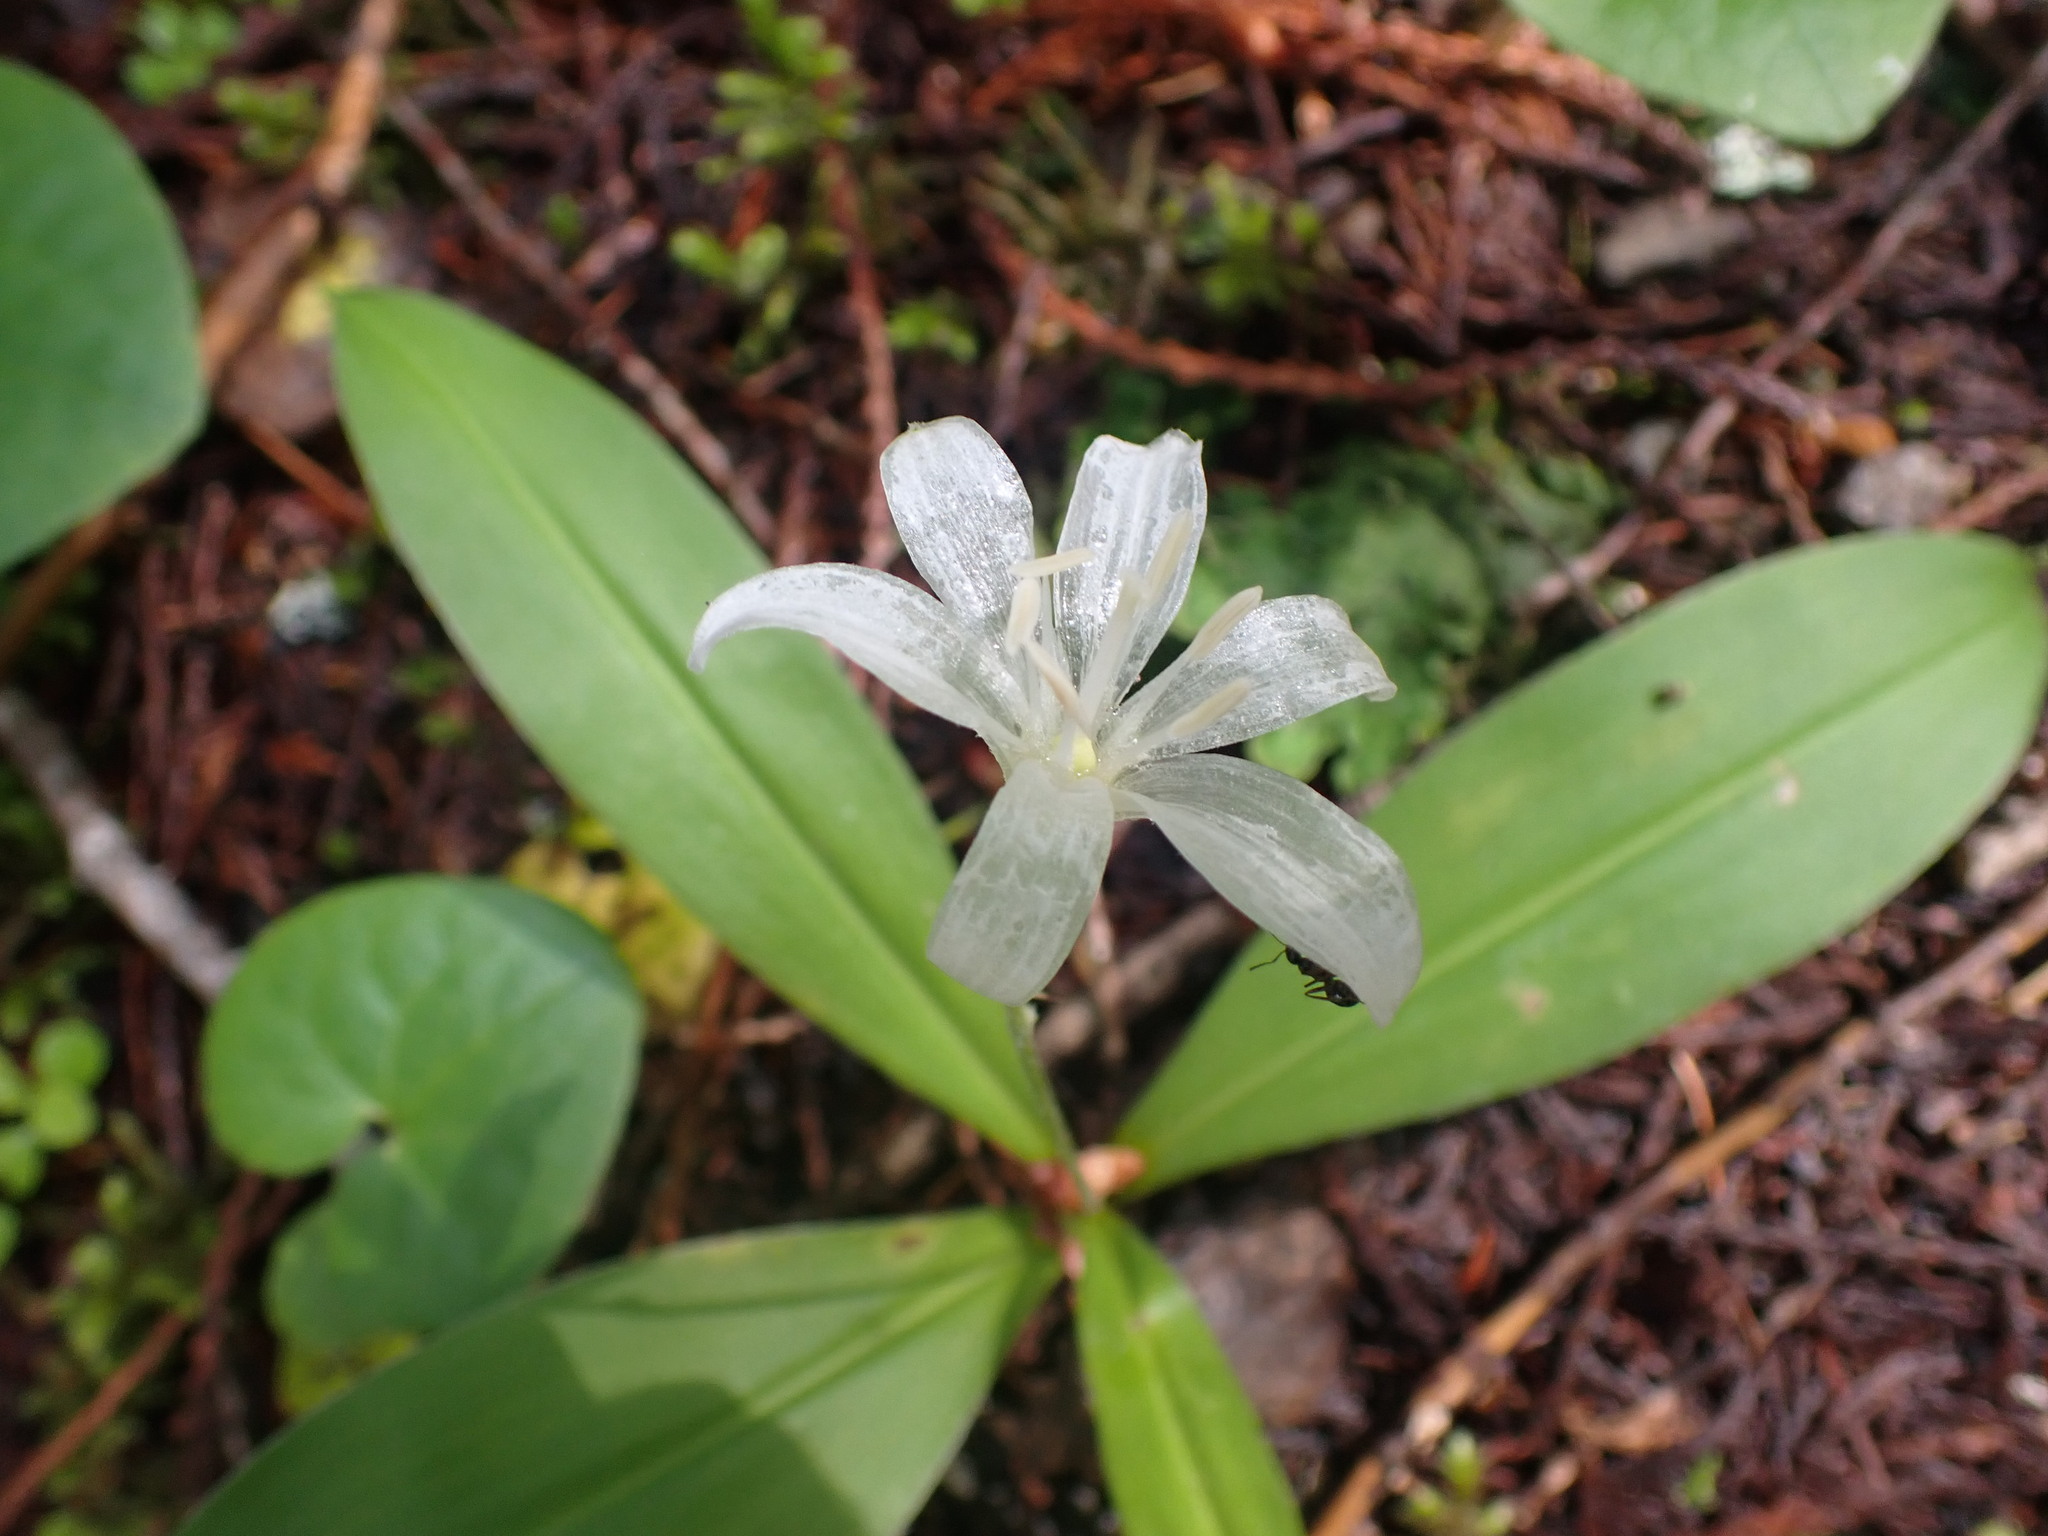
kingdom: Plantae
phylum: Tracheophyta
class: Liliopsida
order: Liliales
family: Liliaceae
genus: Clintonia
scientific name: Clintonia uniflora
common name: Queen's cup
